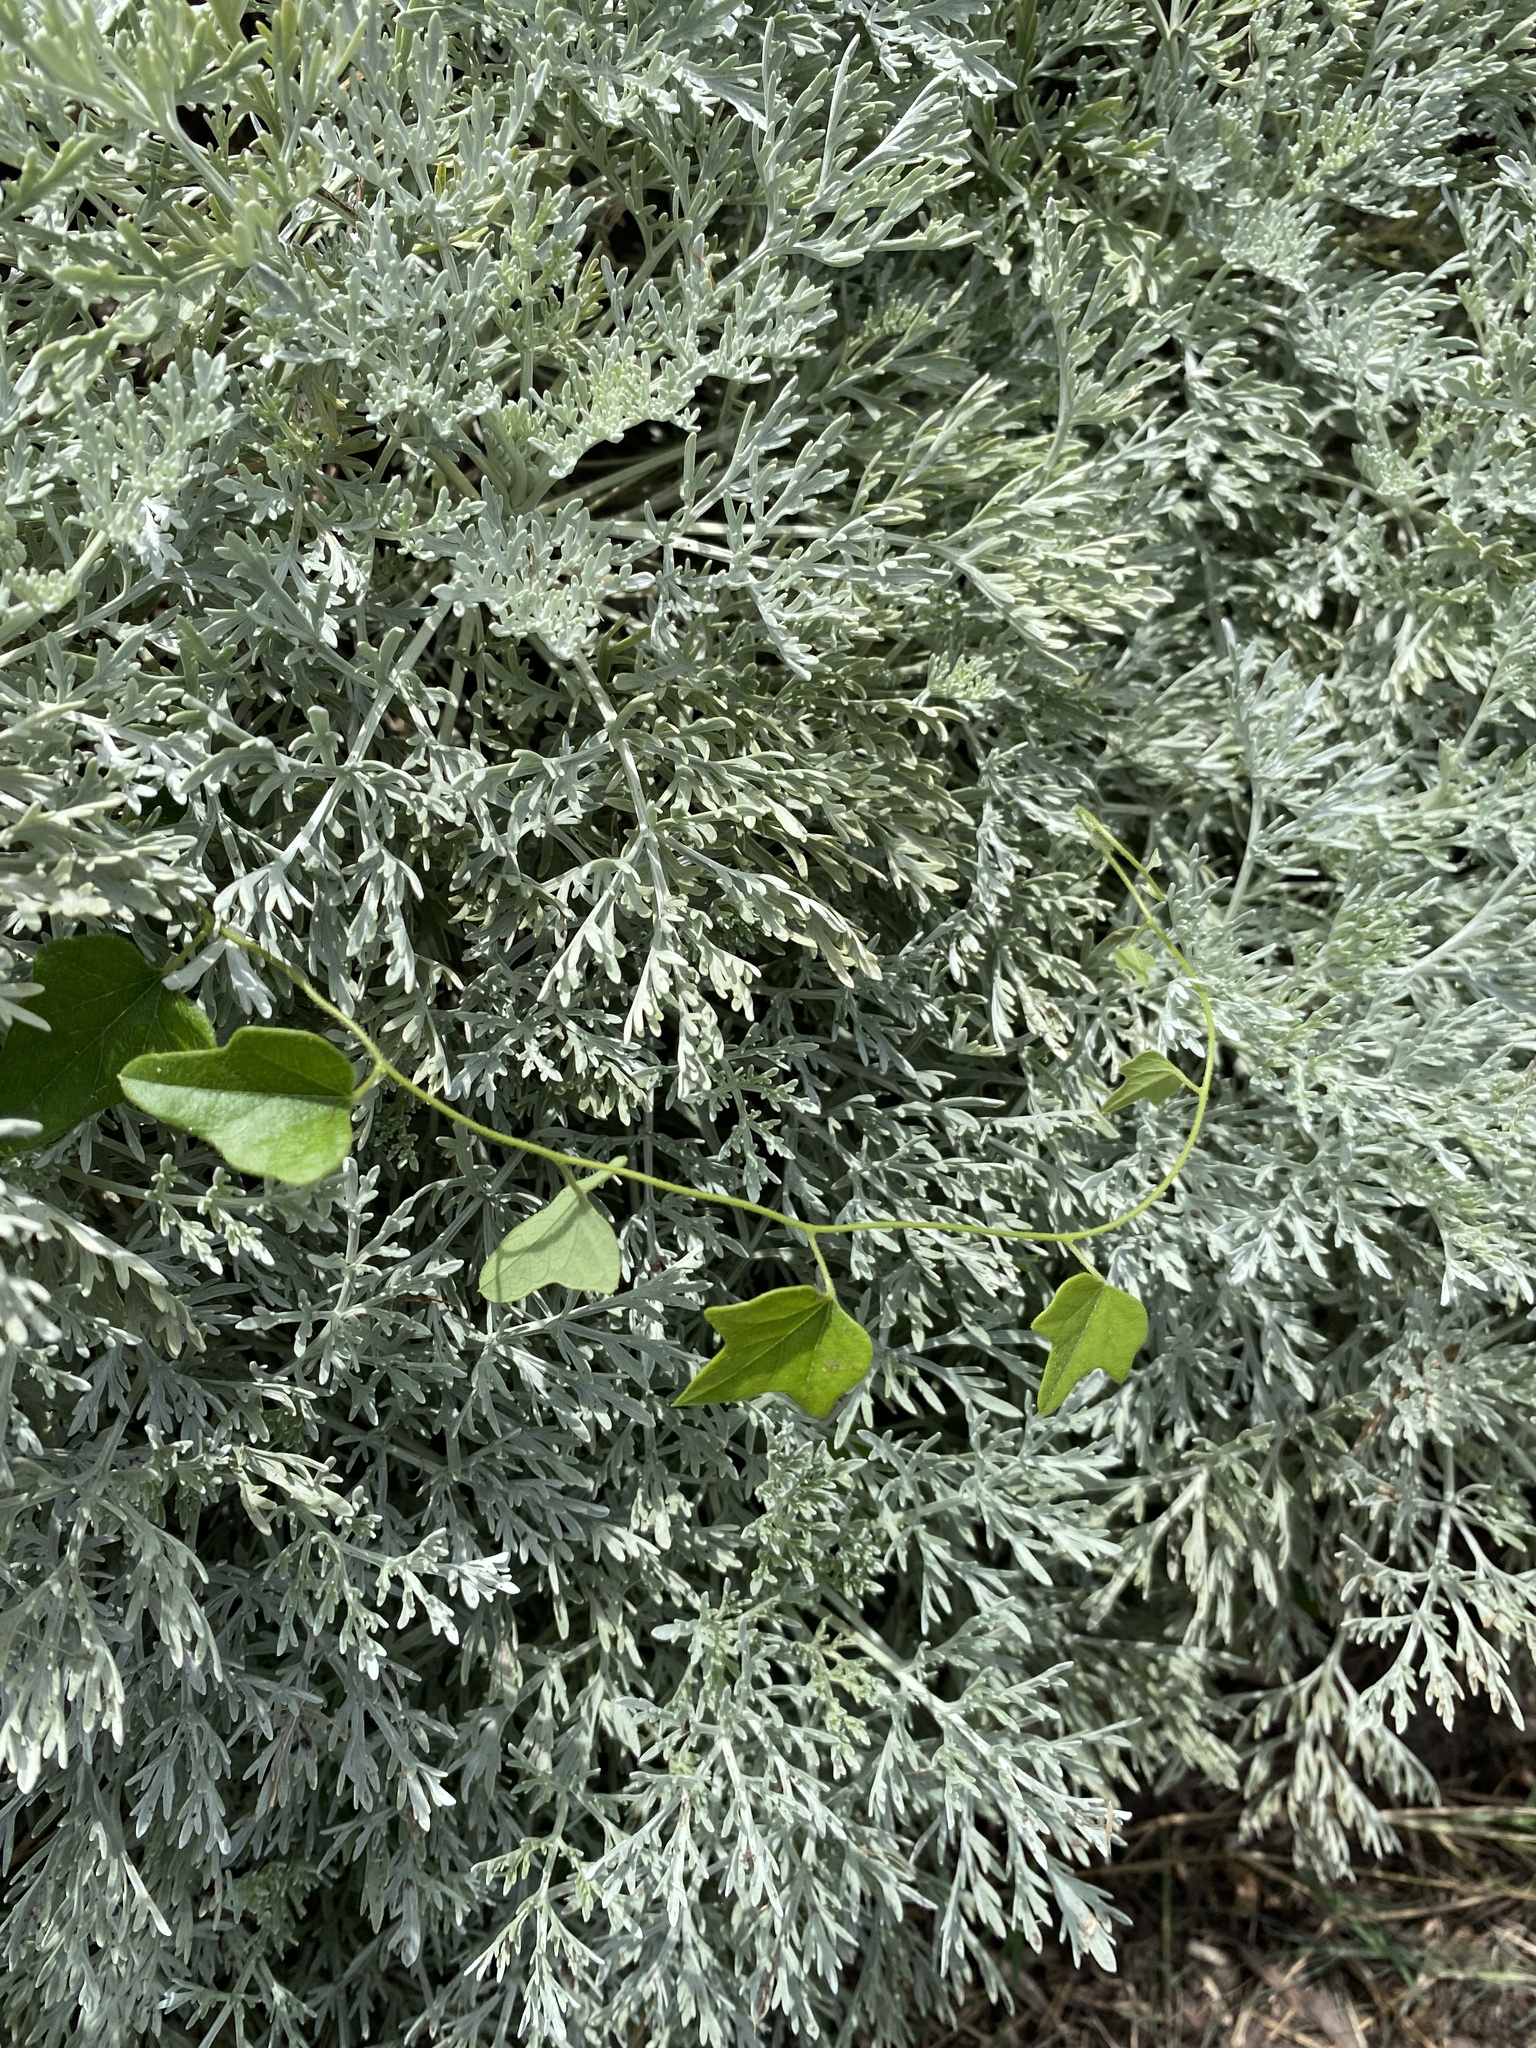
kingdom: Plantae
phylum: Tracheophyta
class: Magnoliopsida
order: Ranunculales
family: Menispermaceae
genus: Cocculus
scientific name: Cocculus carolinus
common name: Carolina moonseed
